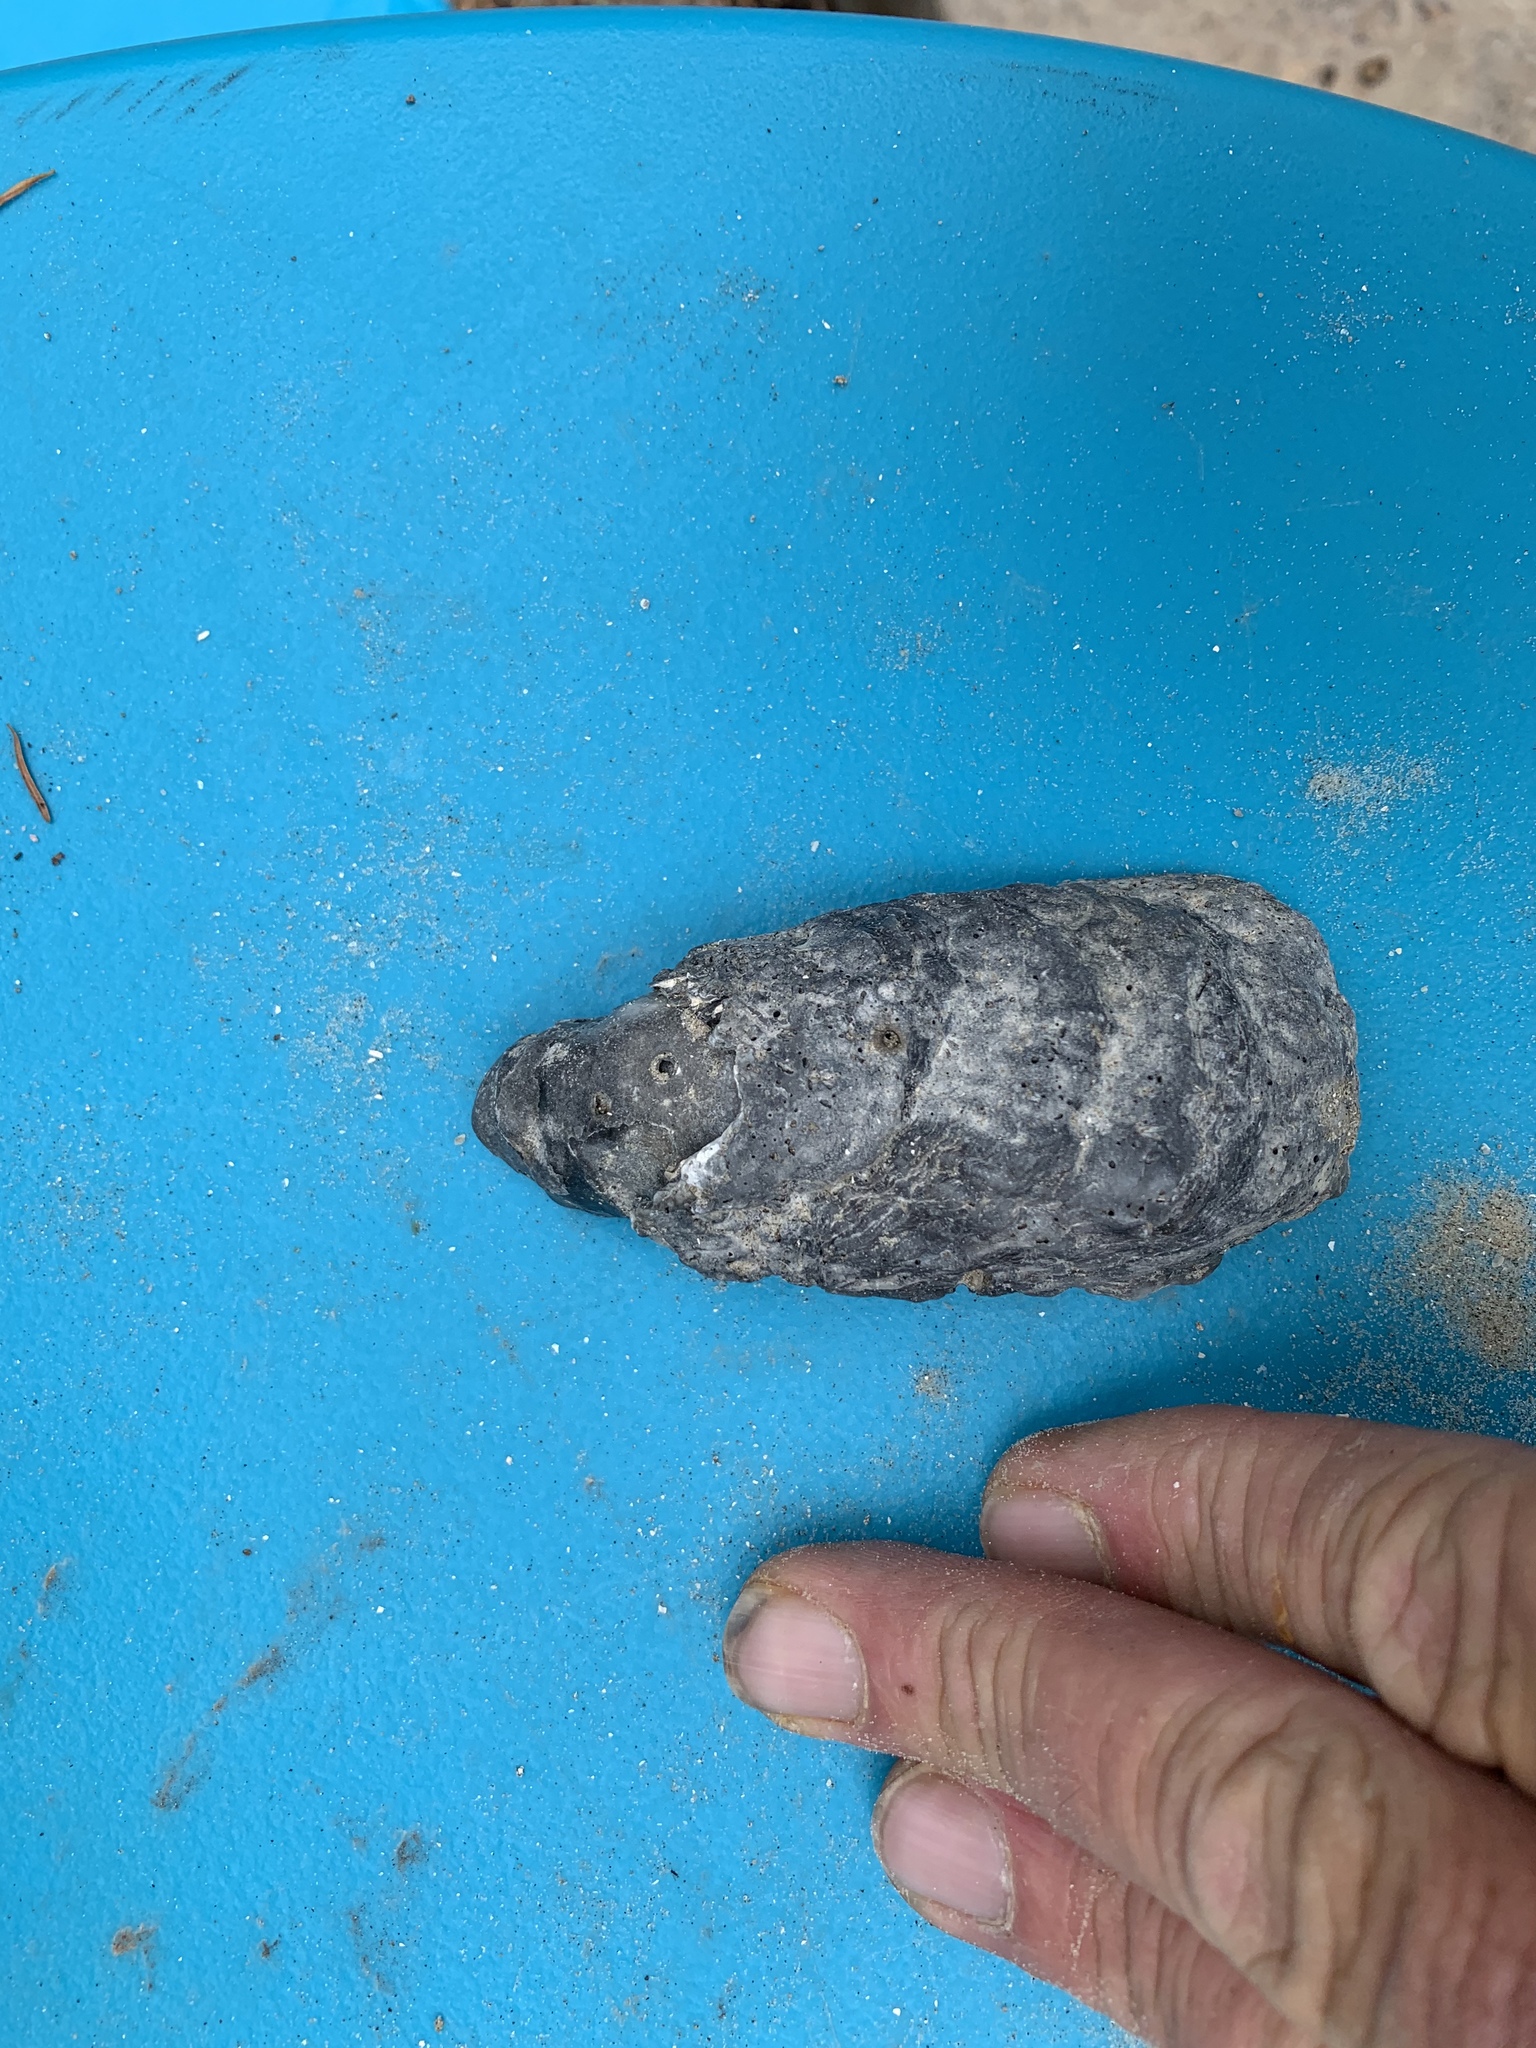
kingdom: Animalia
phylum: Mollusca
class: Bivalvia
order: Ostreida
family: Ostreidae
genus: Crassostrea
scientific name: Crassostrea virginica
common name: American oyster
